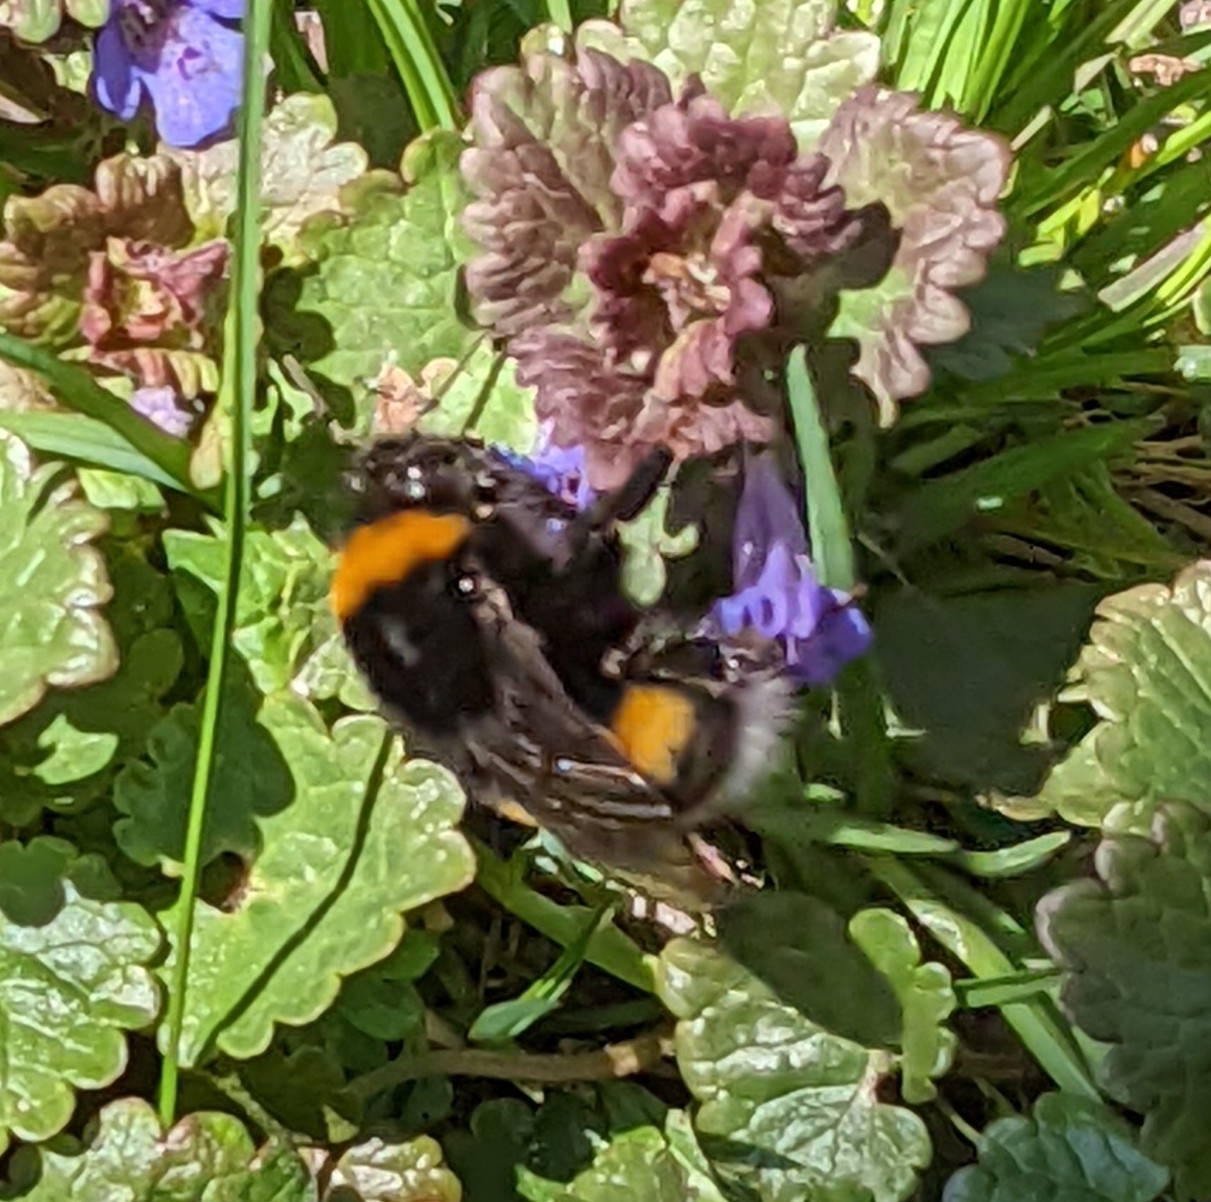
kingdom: Animalia
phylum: Arthropoda
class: Insecta
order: Hymenoptera
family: Apidae
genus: Bombus
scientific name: Bombus
